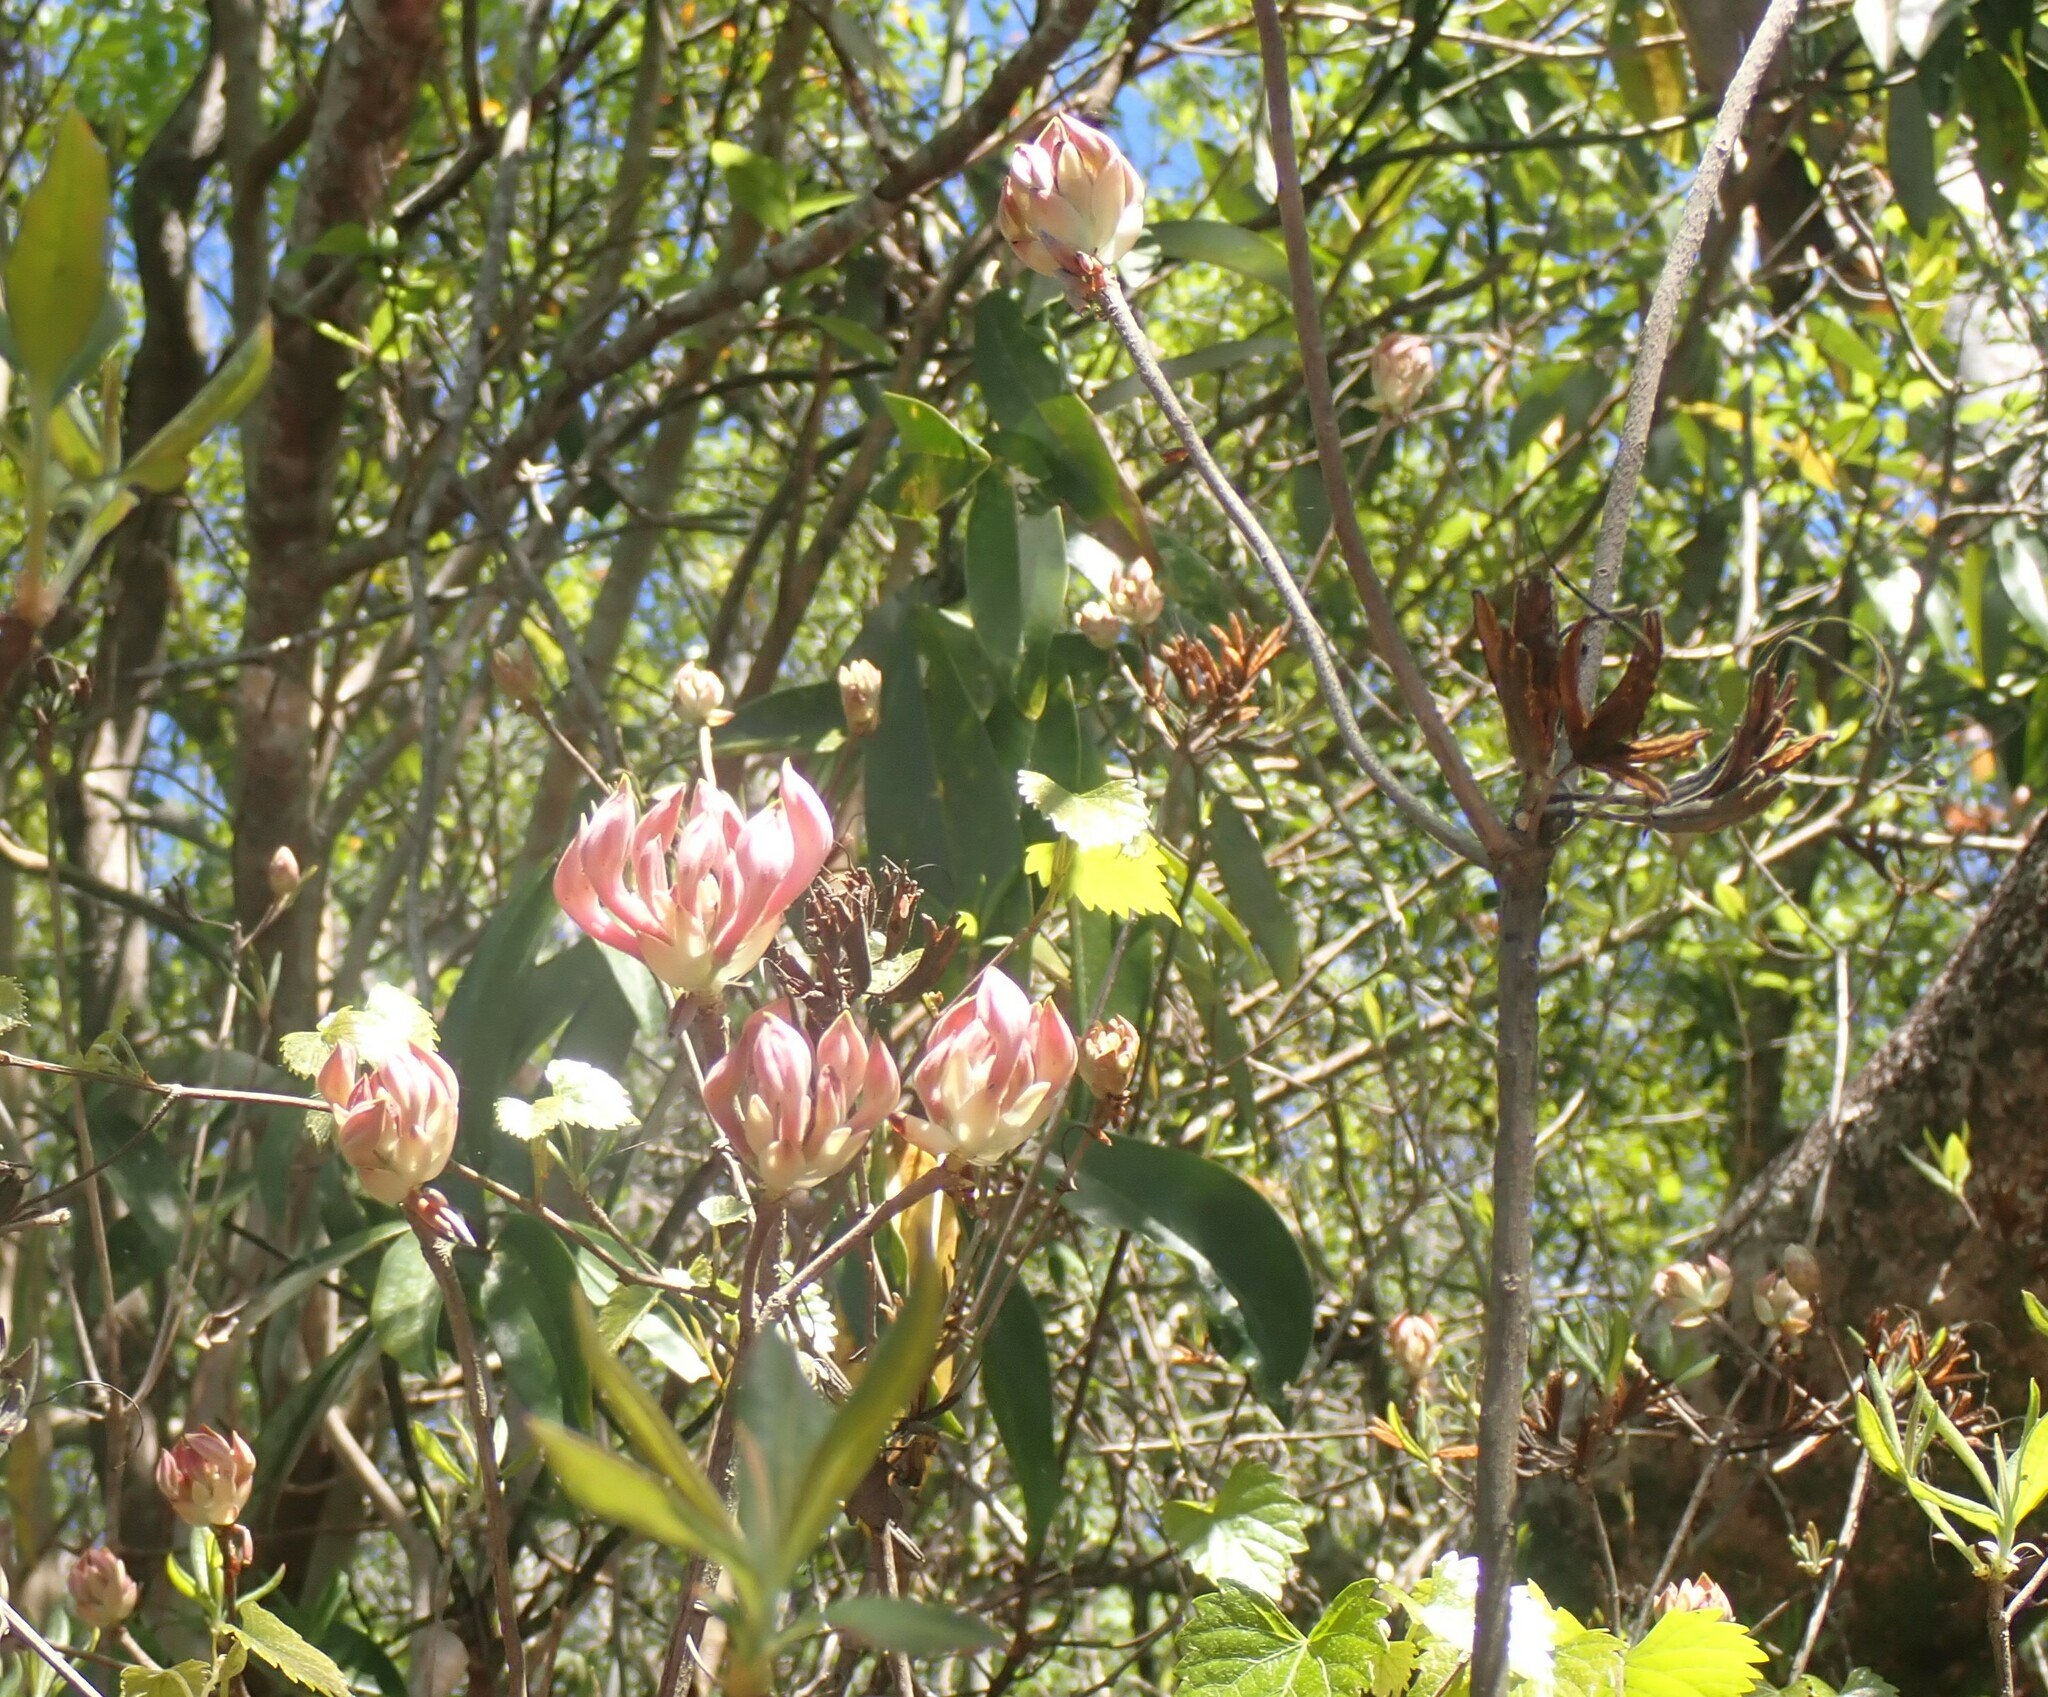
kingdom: Plantae
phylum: Tracheophyta
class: Magnoliopsida
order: Ericales
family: Ericaceae
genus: Rhododendron
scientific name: Rhododendron canescens
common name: Mountain azalea
